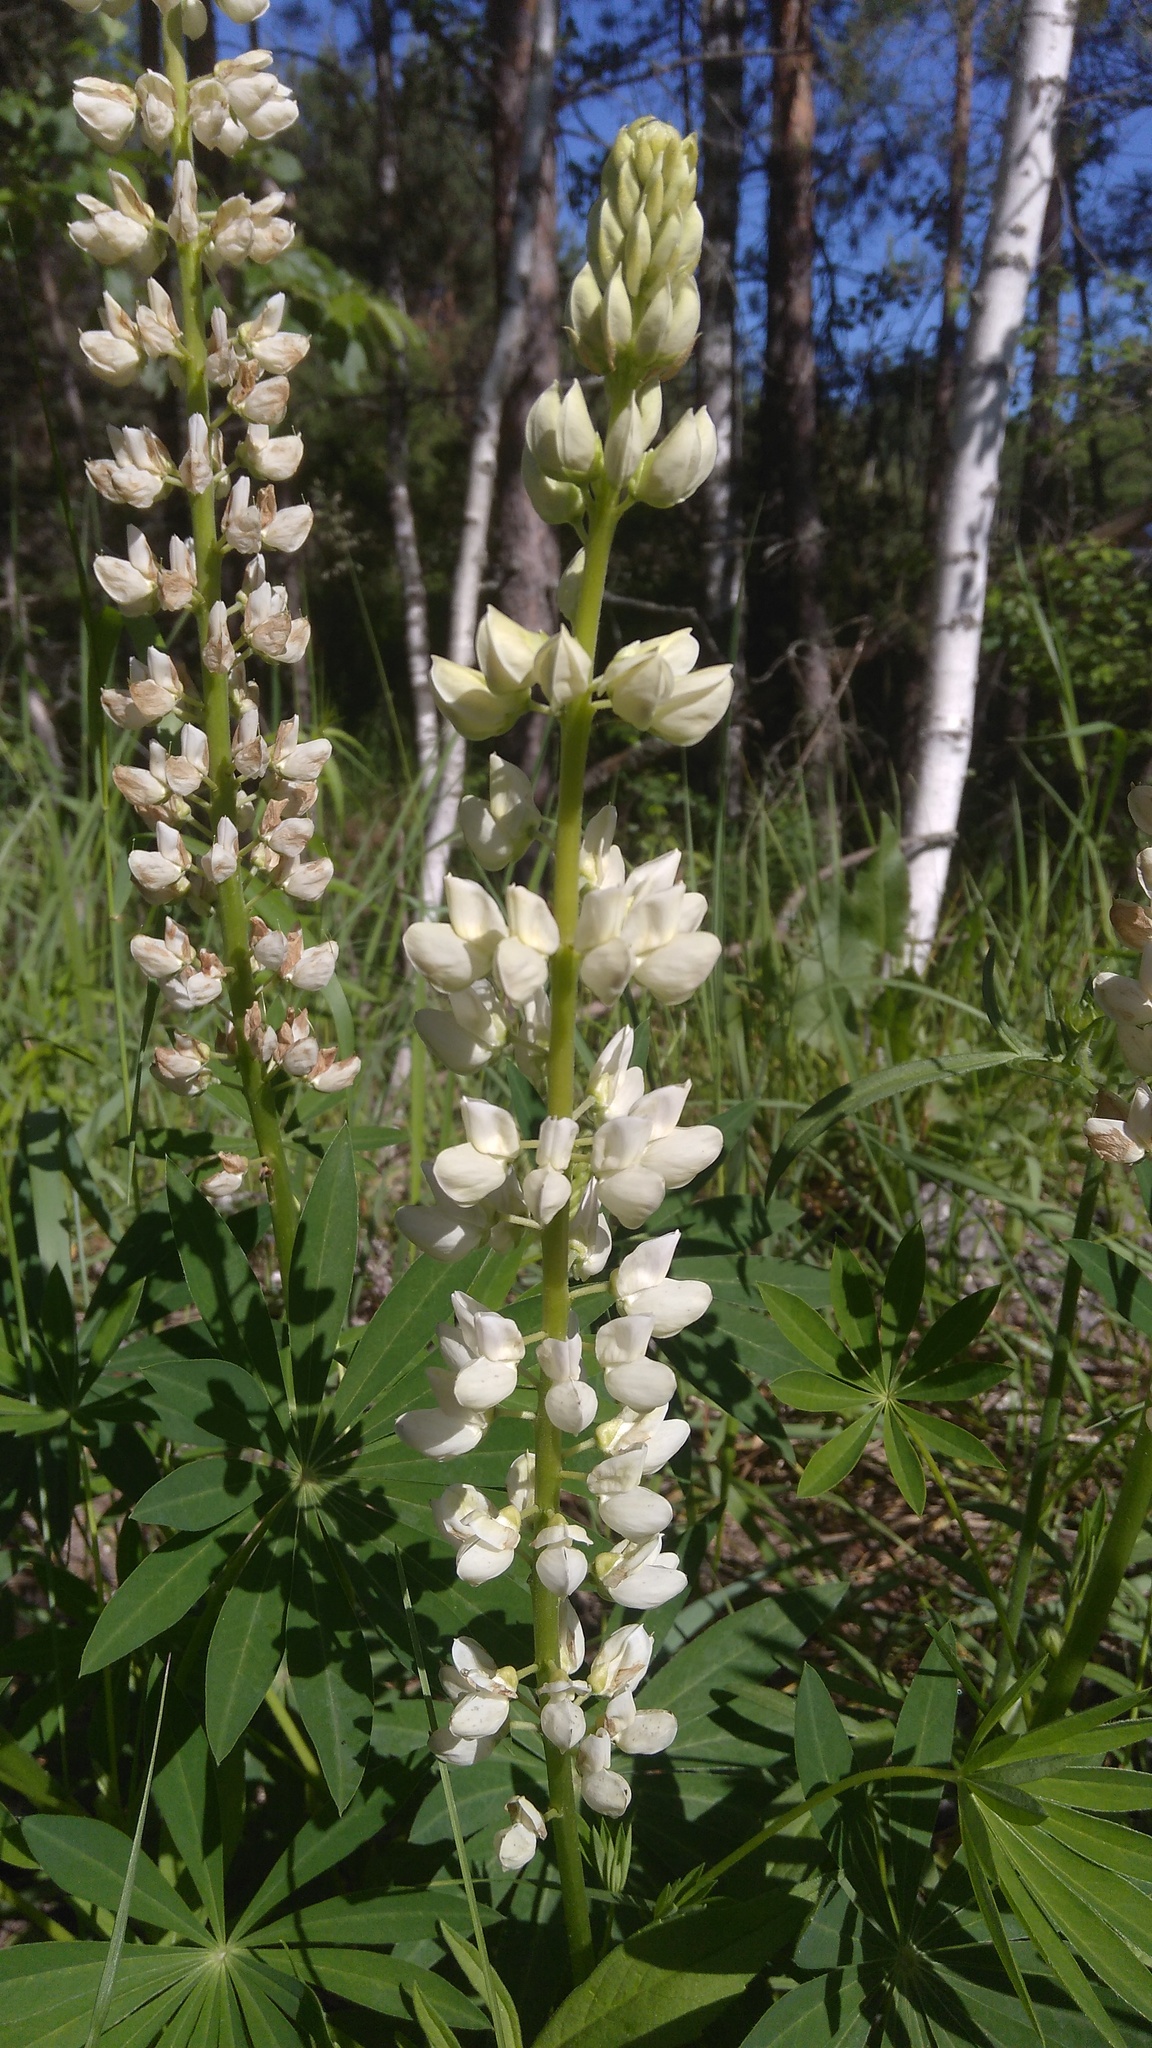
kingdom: Plantae
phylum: Tracheophyta
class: Magnoliopsida
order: Fabales
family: Fabaceae
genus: Lupinus
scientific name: Lupinus polyphyllus
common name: Garden lupin
